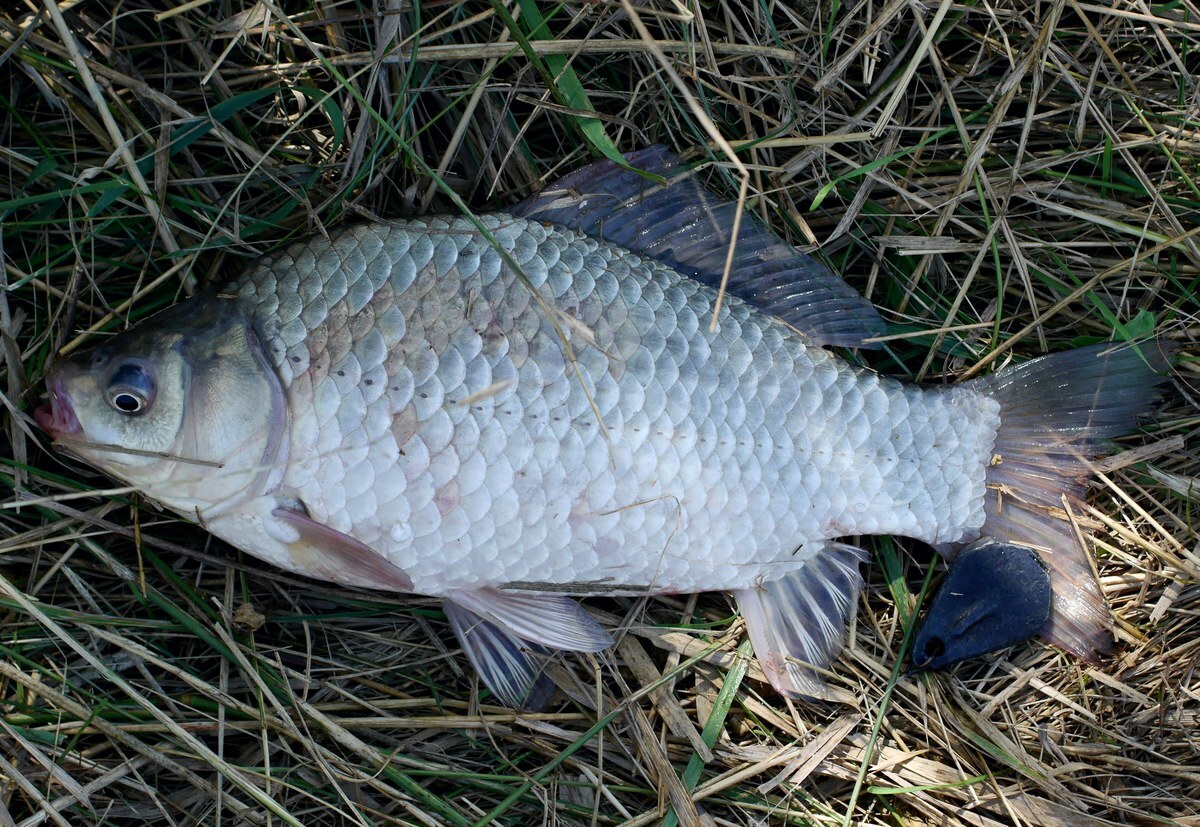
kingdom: Animalia
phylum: Chordata
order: Cypriniformes
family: Cyprinidae
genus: Carassius
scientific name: Carassius gibelio
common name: Prussian carp
